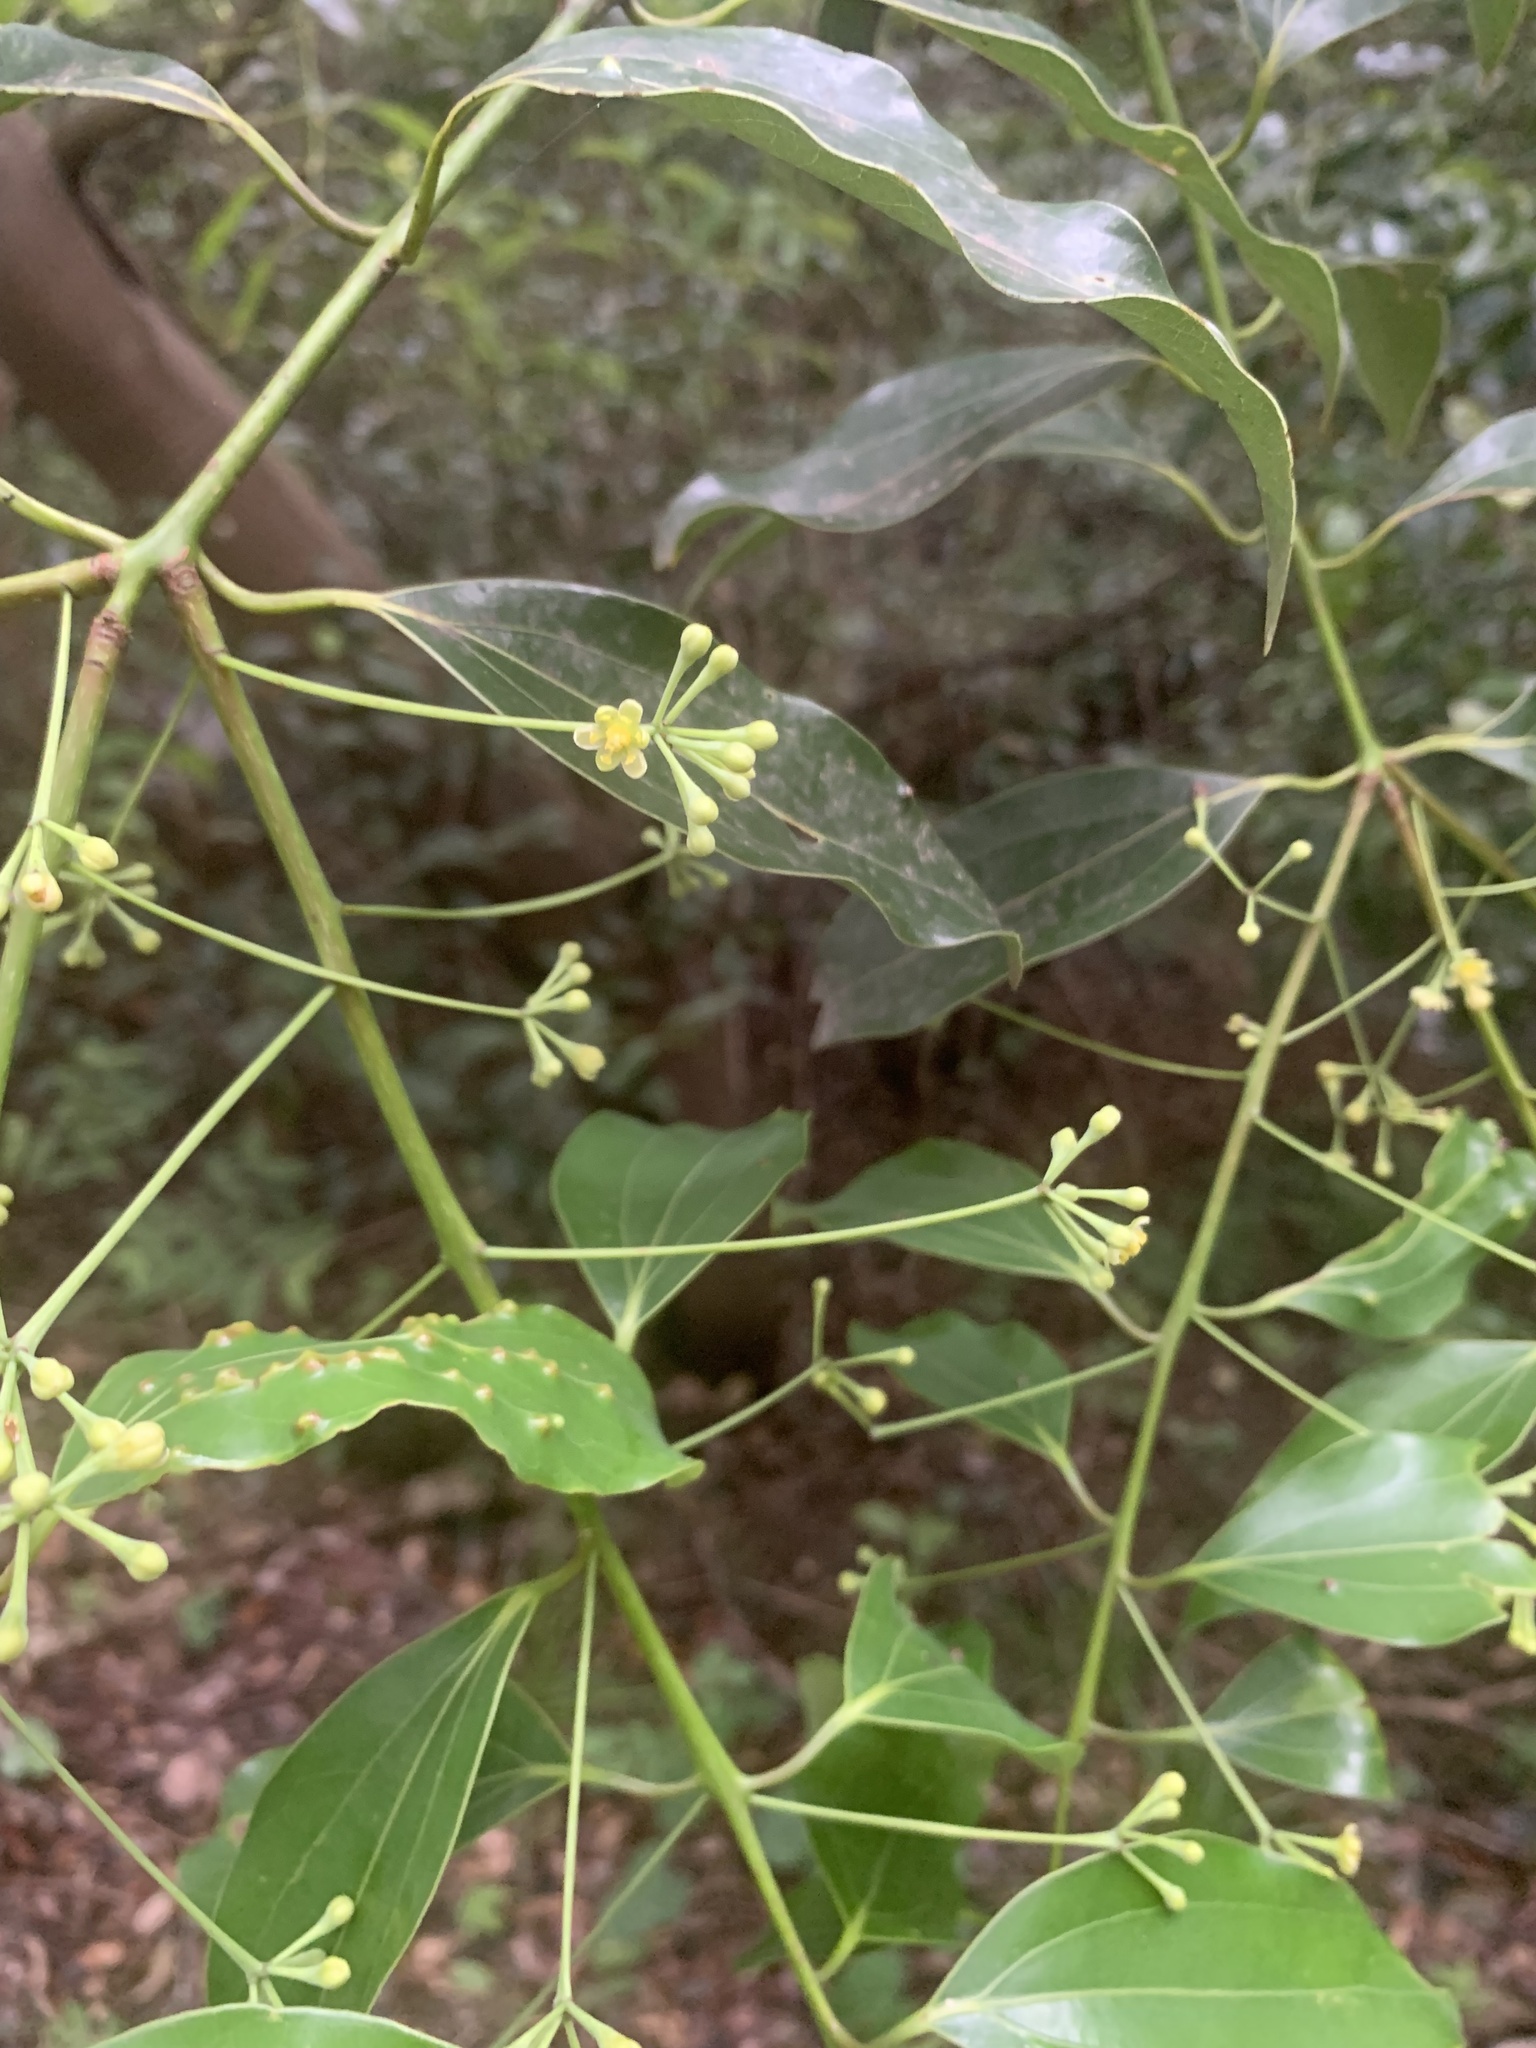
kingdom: Plantae
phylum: Tracheophyta
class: Magnoliopsida
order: Laurales
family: Lauraceae
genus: Cinnamomum
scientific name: Cinnamomum chekiangense
